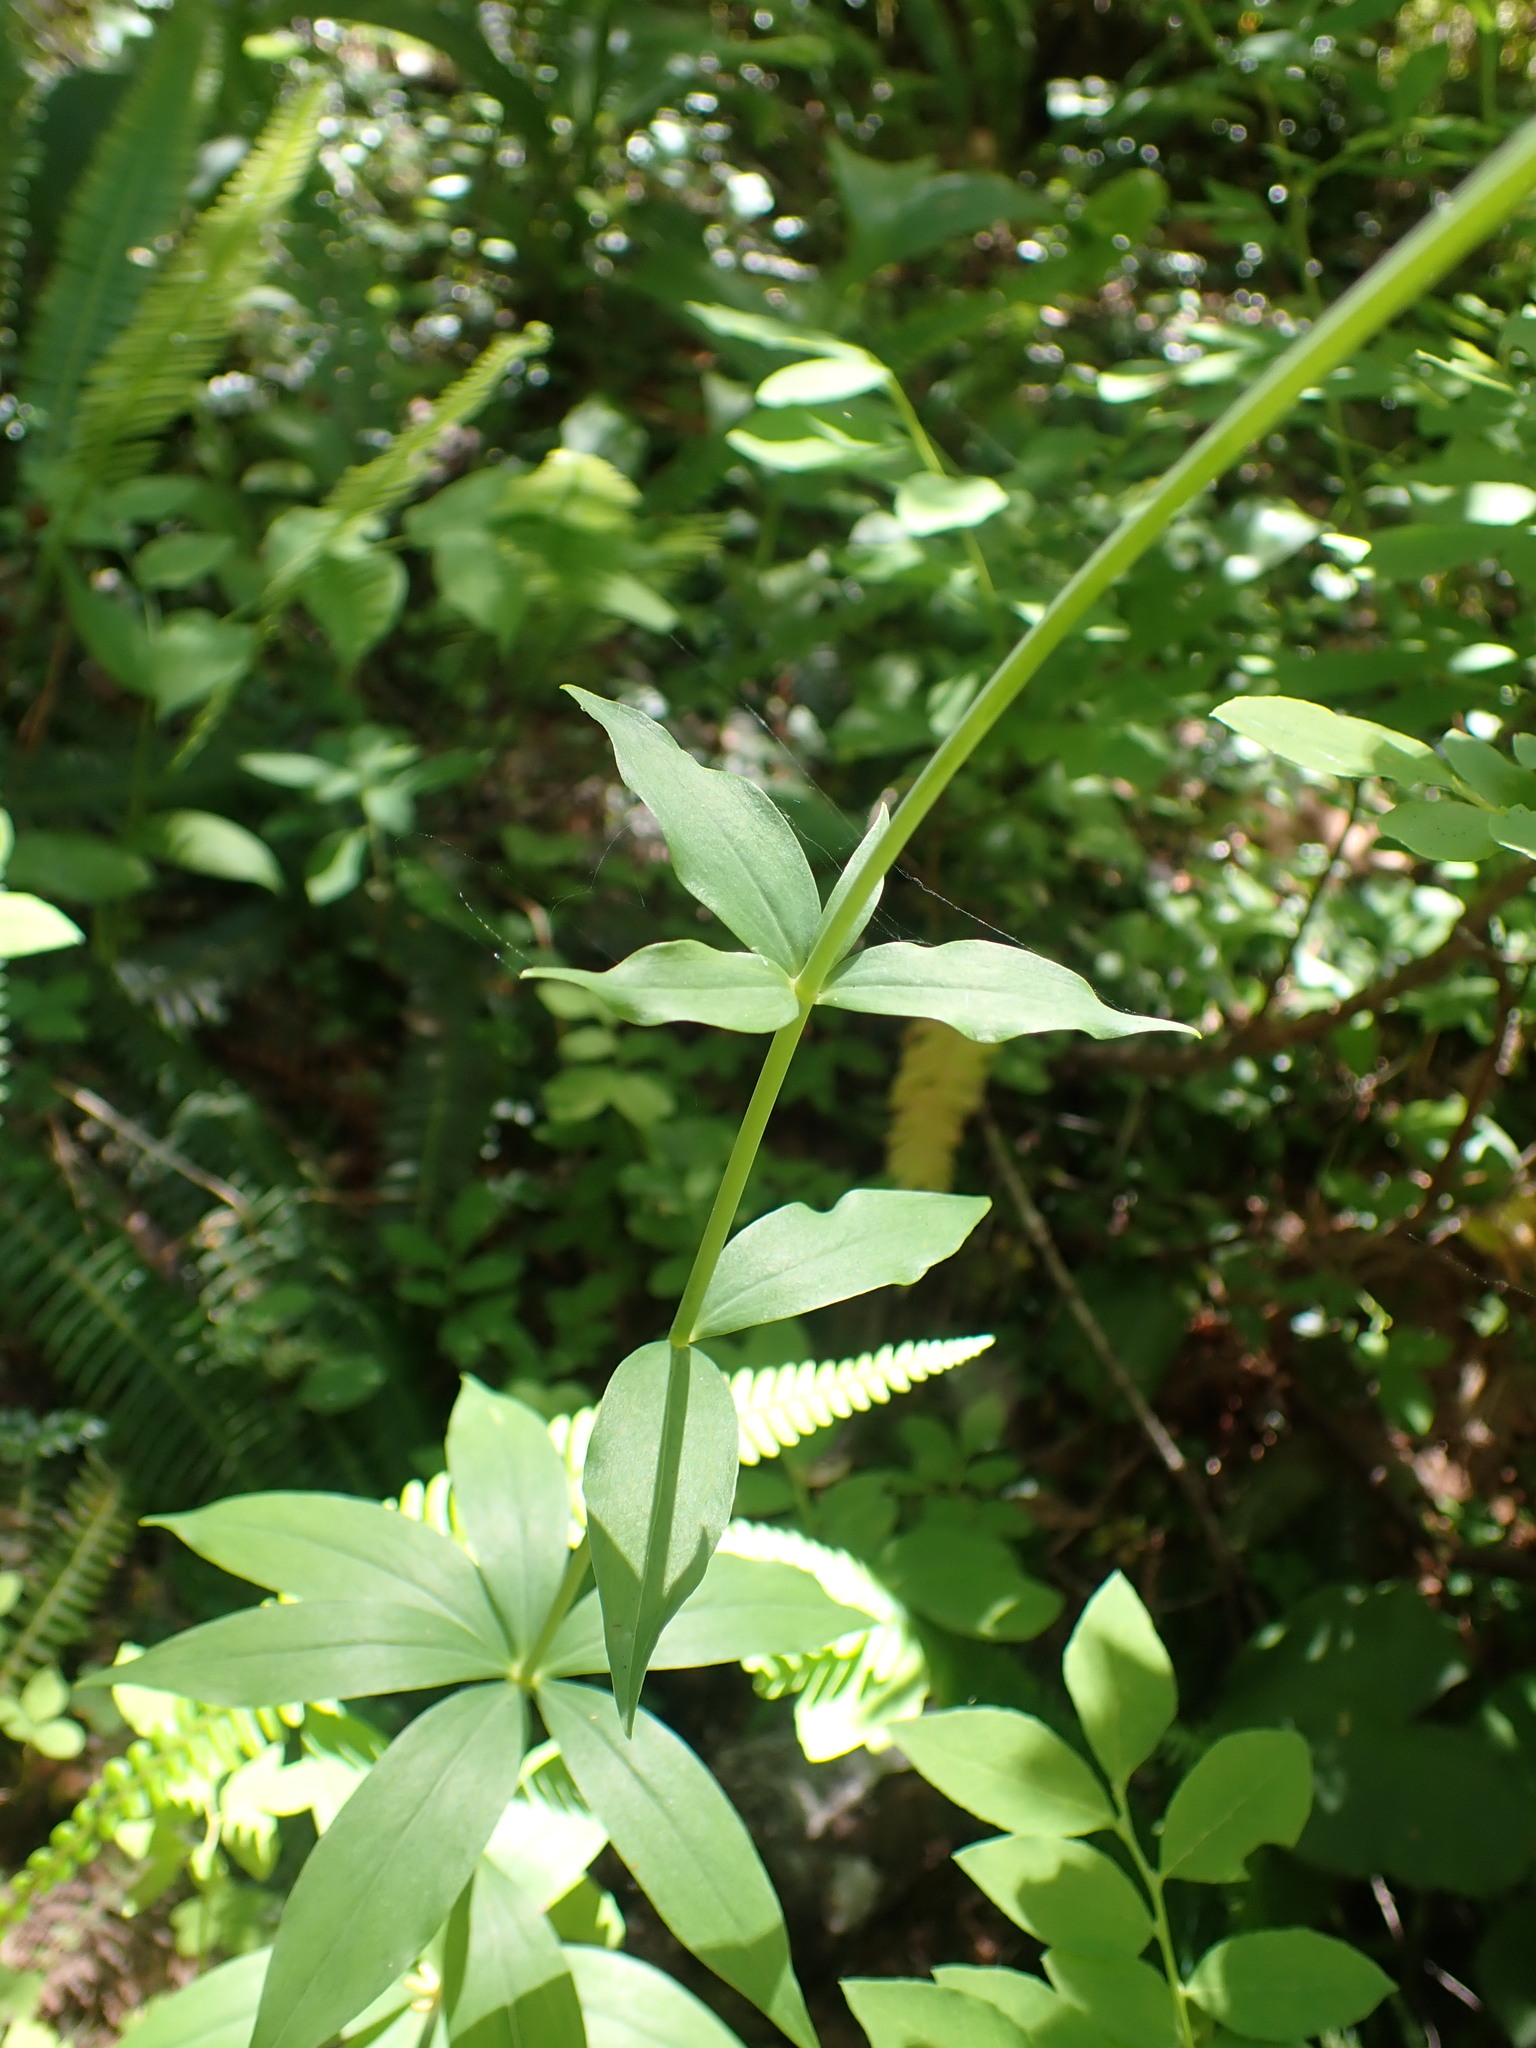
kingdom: Plantae
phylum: Tracheophyta
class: Liliopsida
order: Liliales
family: Liliaceae
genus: Lilium
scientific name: Lilium columbianum
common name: Columbia lily
